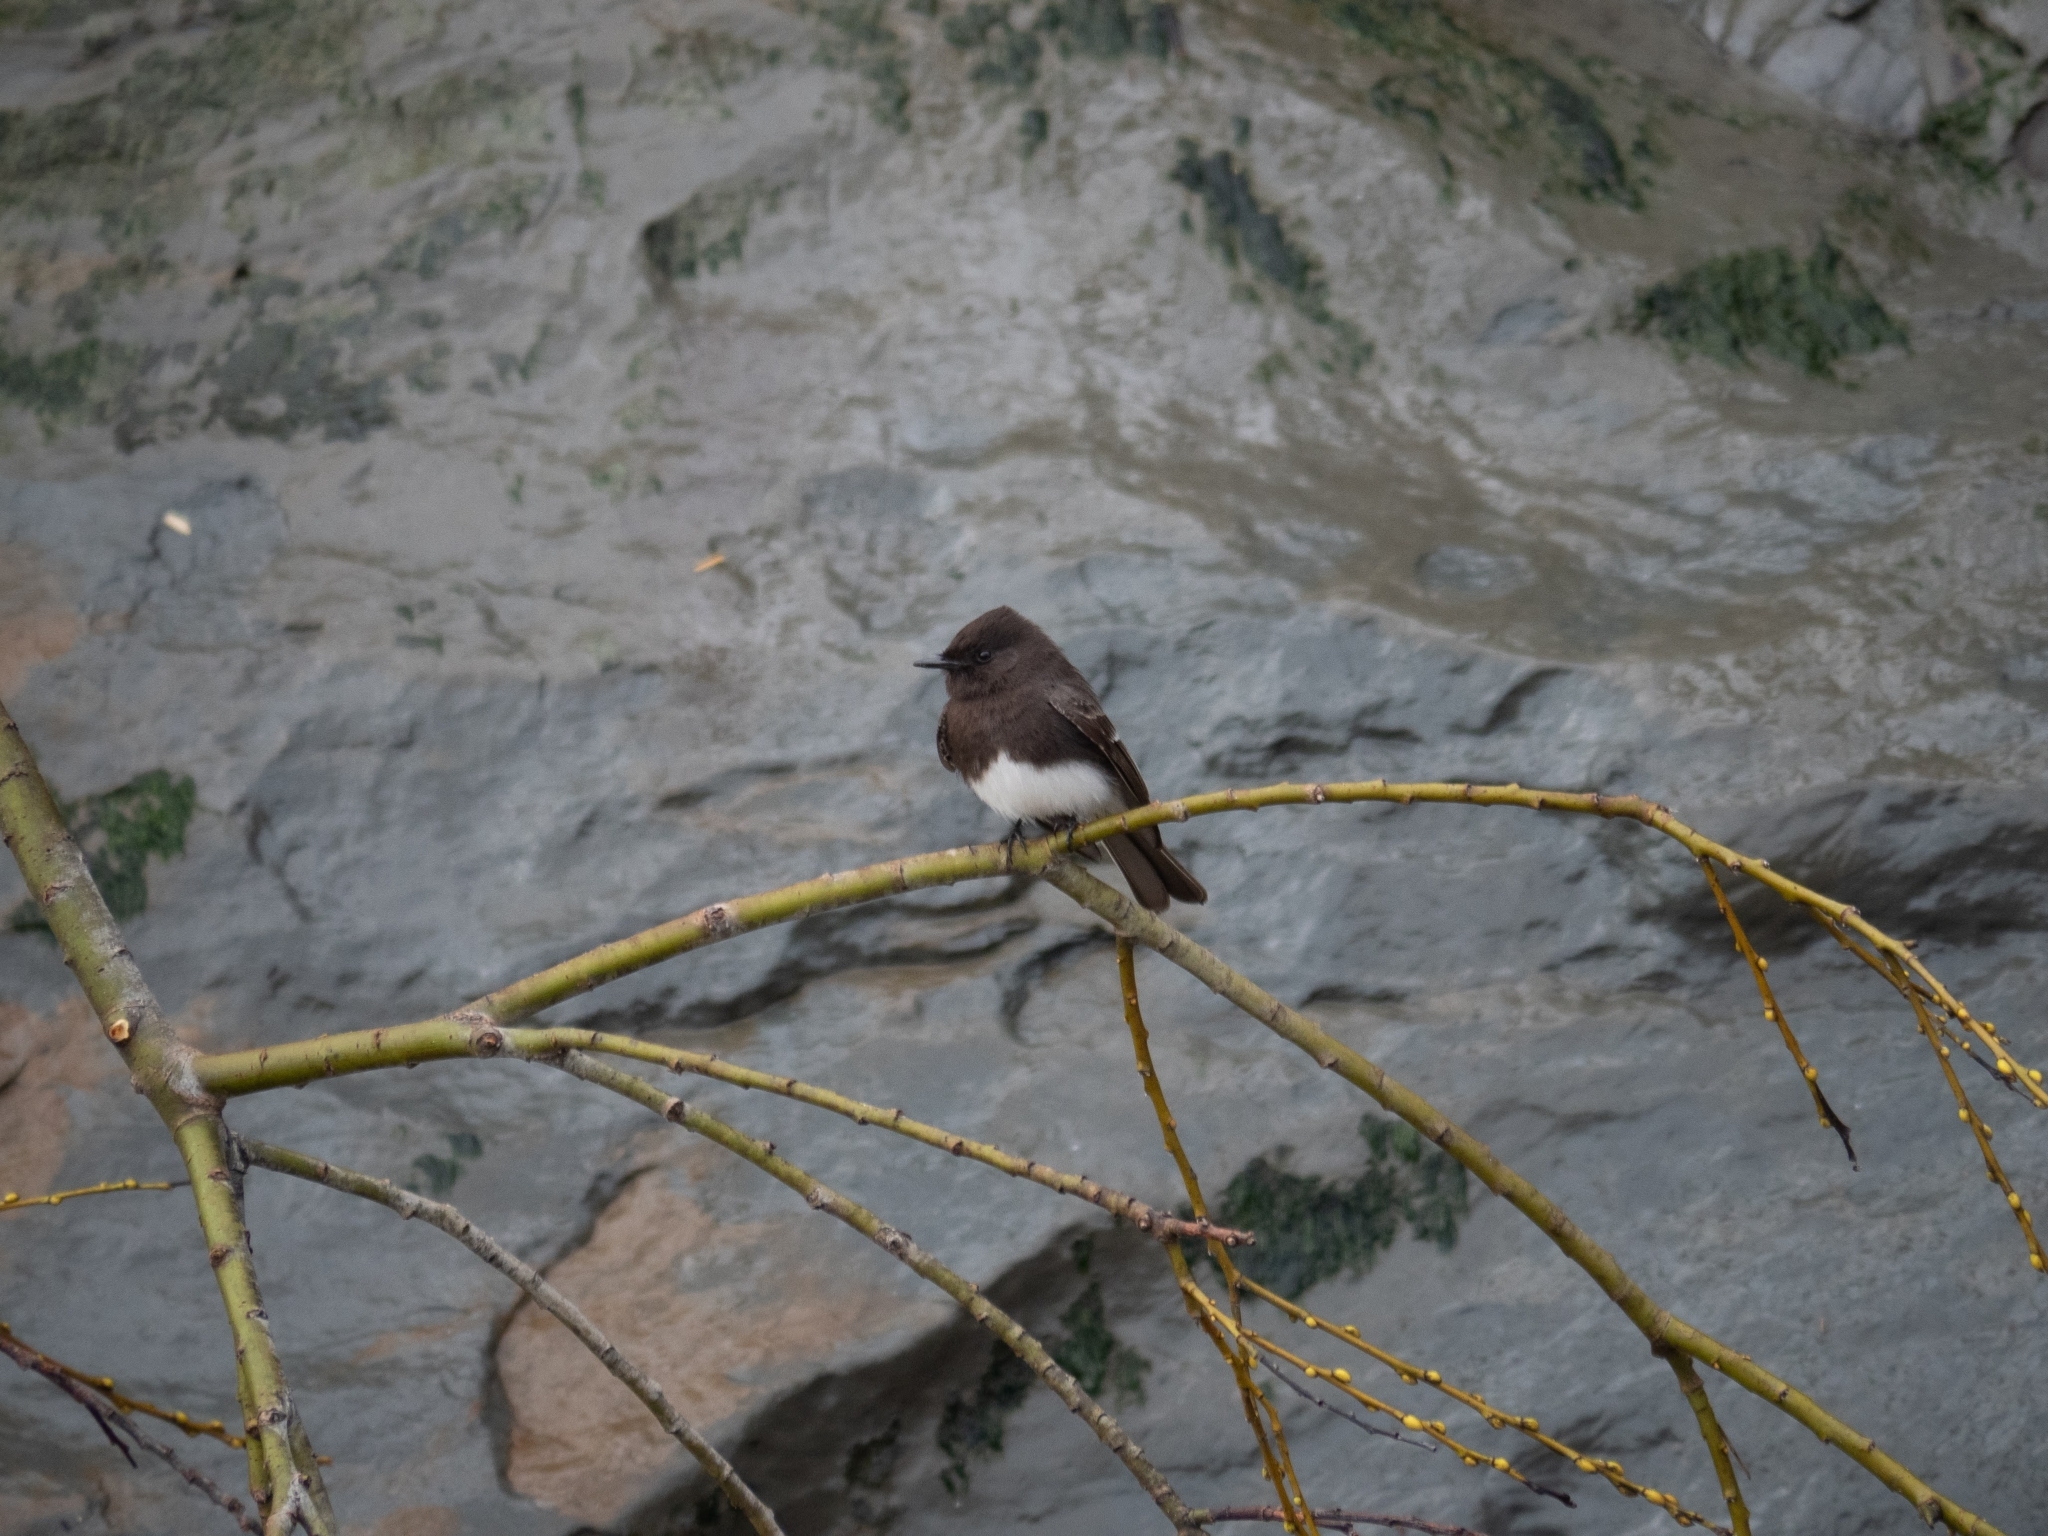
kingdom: Animalia
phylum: Chordata
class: Aves
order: Passeriformes
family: Tyrannidae
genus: Sayornis
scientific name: Sayornis nigricans
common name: Black phoebe
